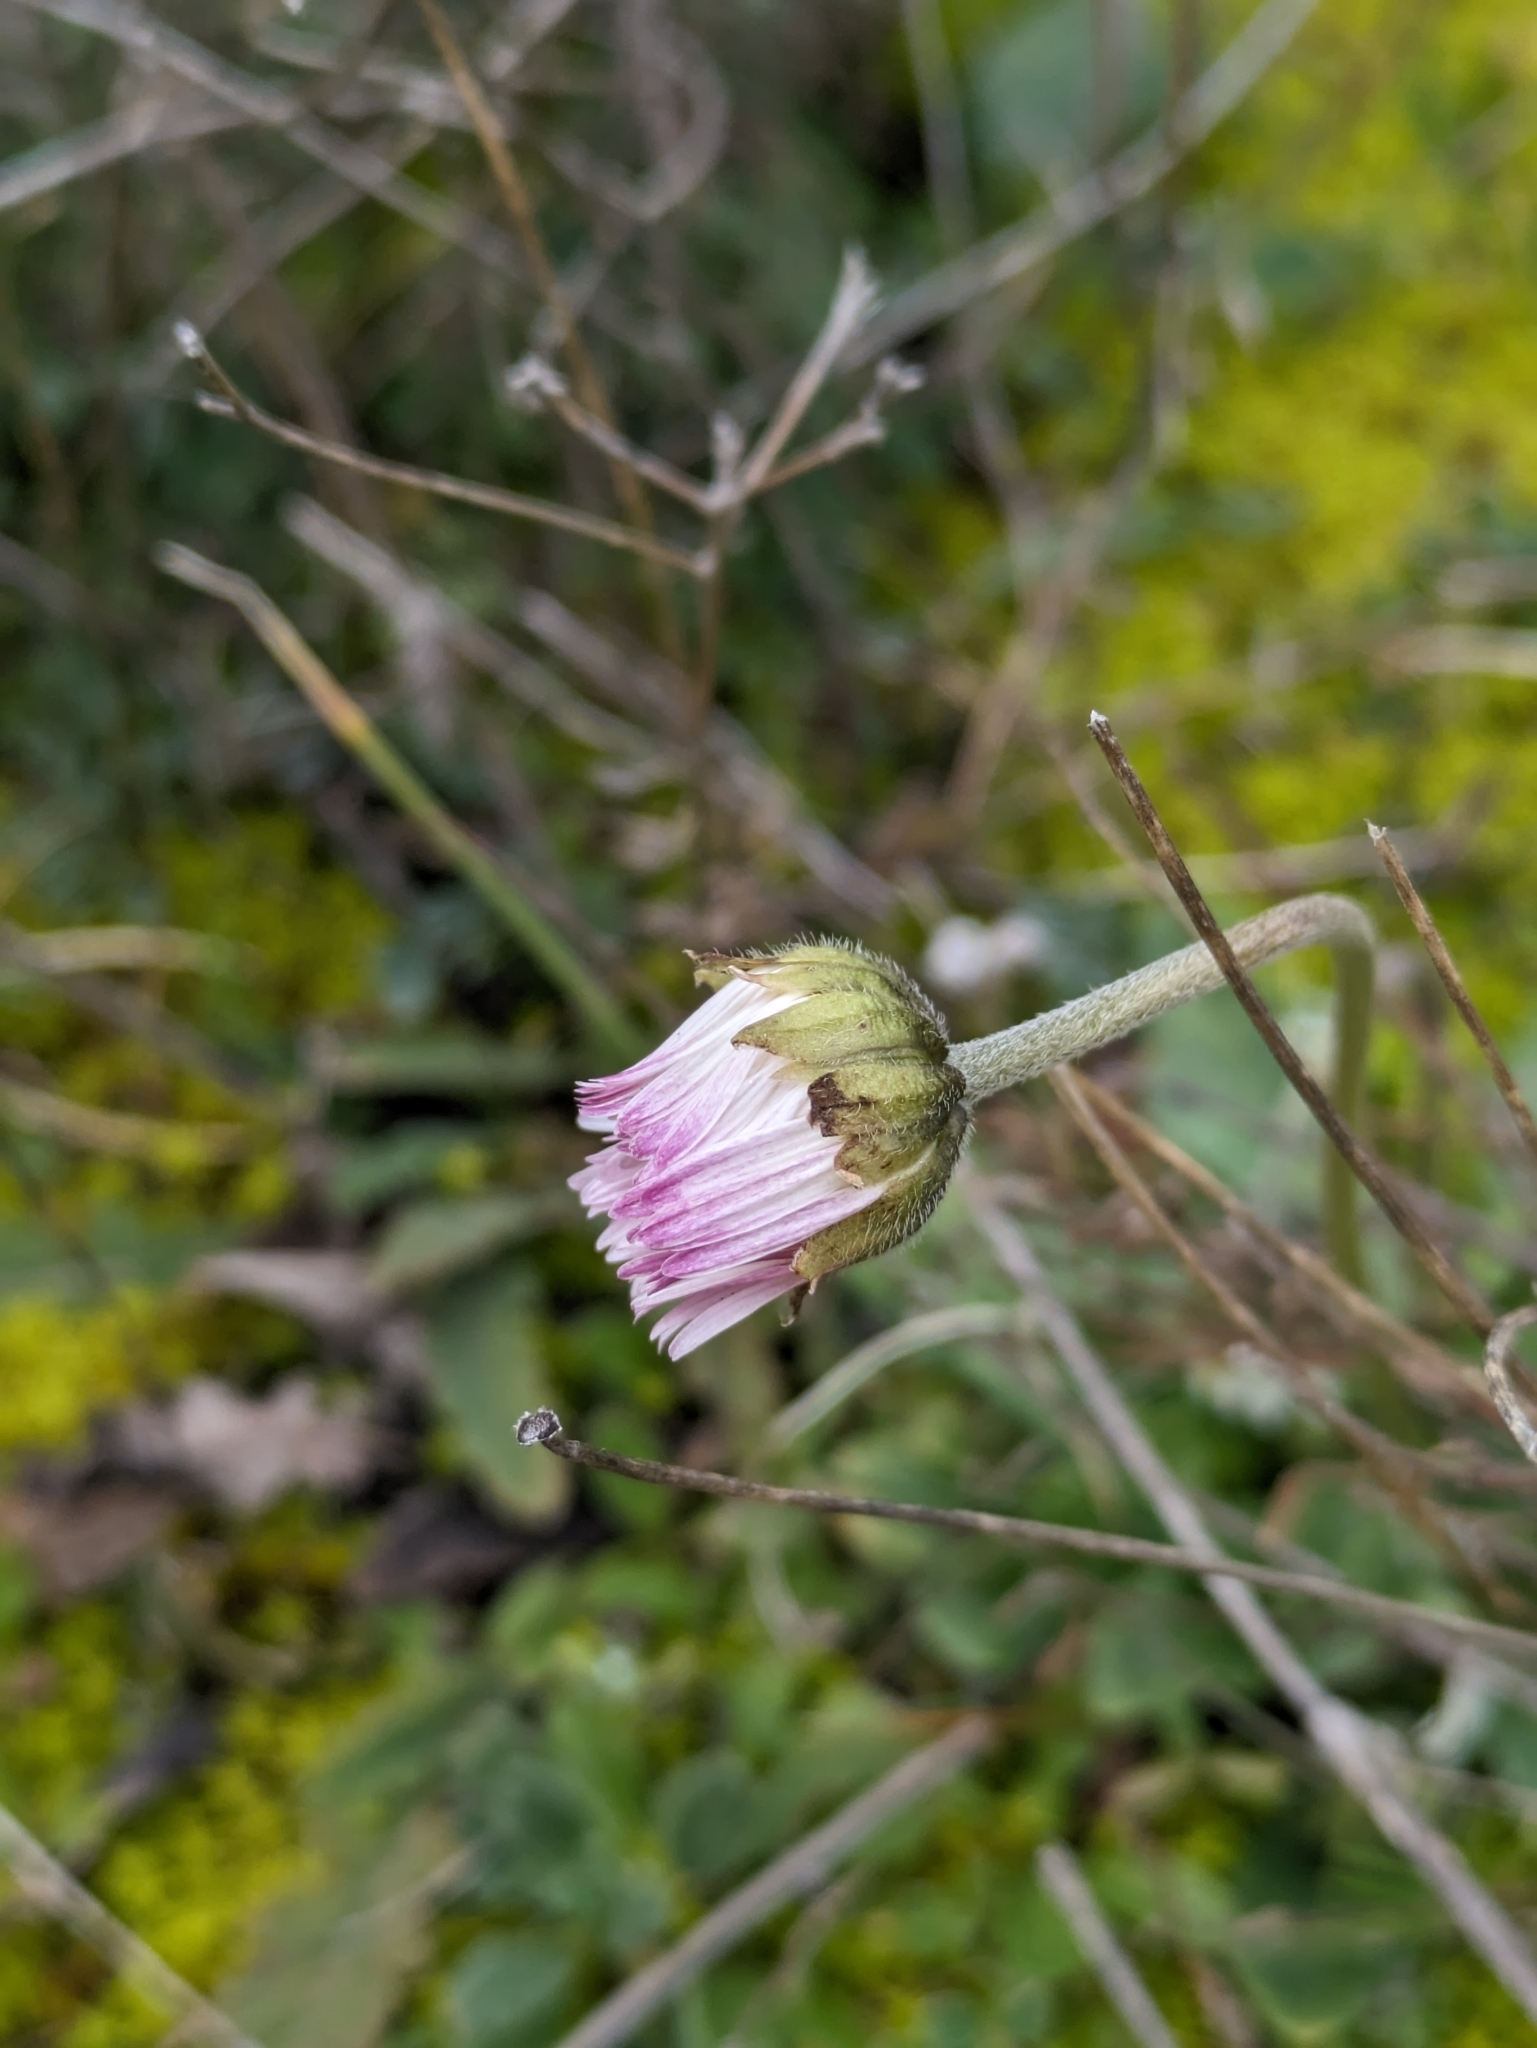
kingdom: Plantae
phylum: Tracheophyta
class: Magnoliopsida
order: Asterales
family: Asteraceae
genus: Bellis
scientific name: Bellis sylvestris
